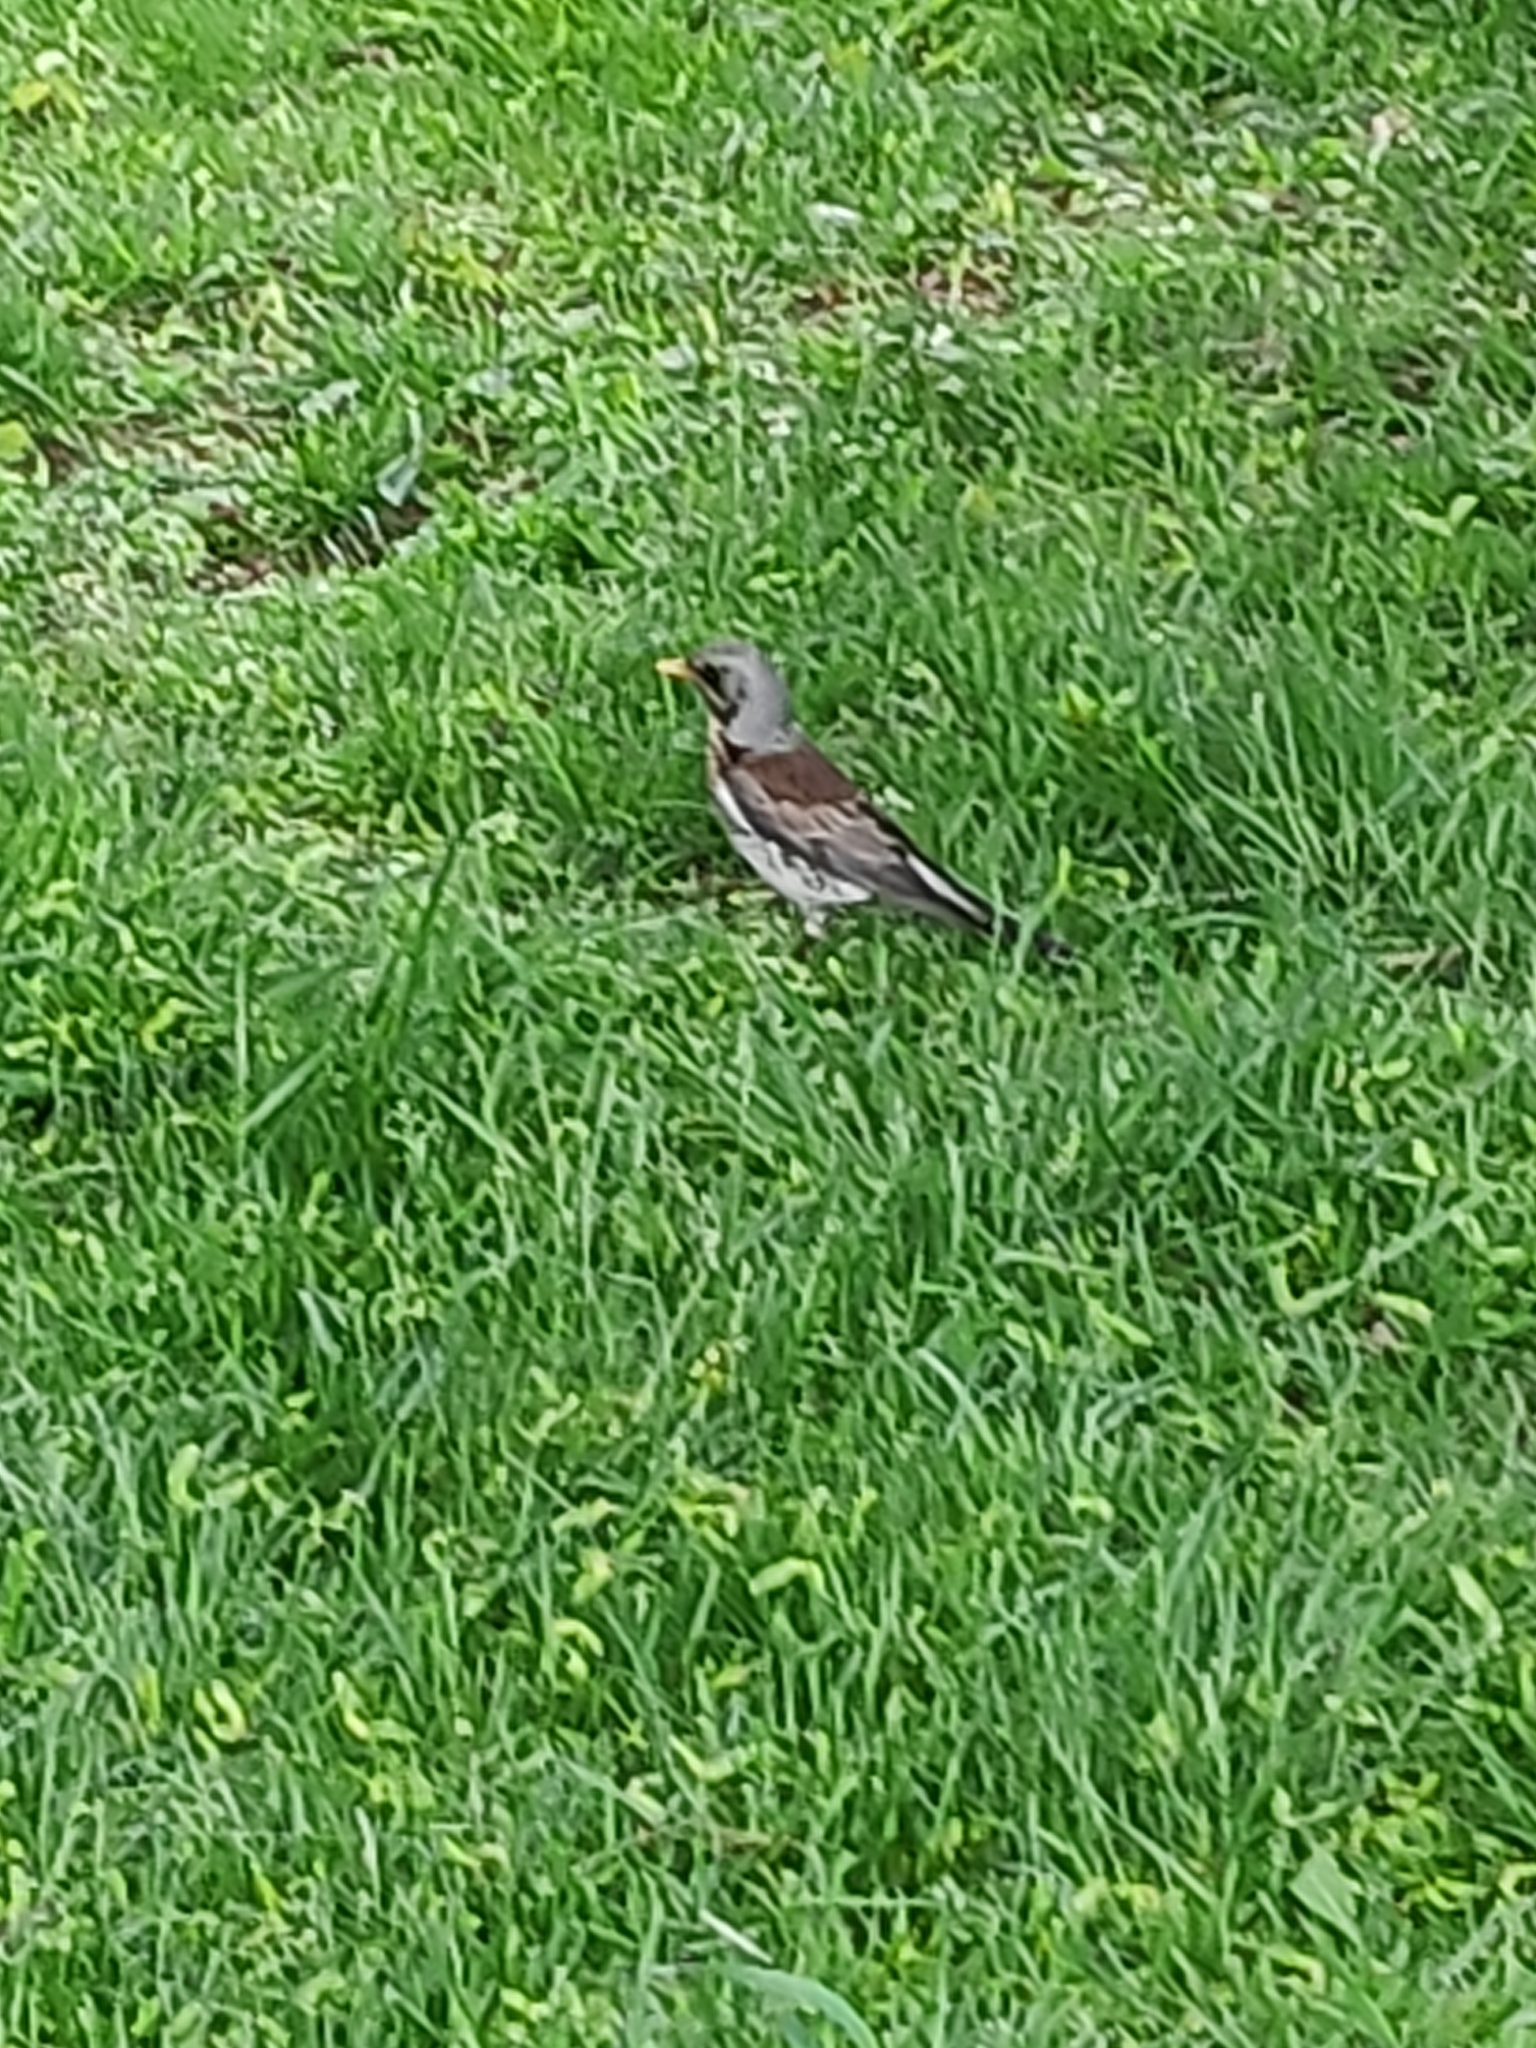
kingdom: Animalia
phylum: Chordata
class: Aves
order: Passeriformes
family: Turdidae
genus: Turdus
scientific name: Turdus pilaris
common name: Fieldfare
